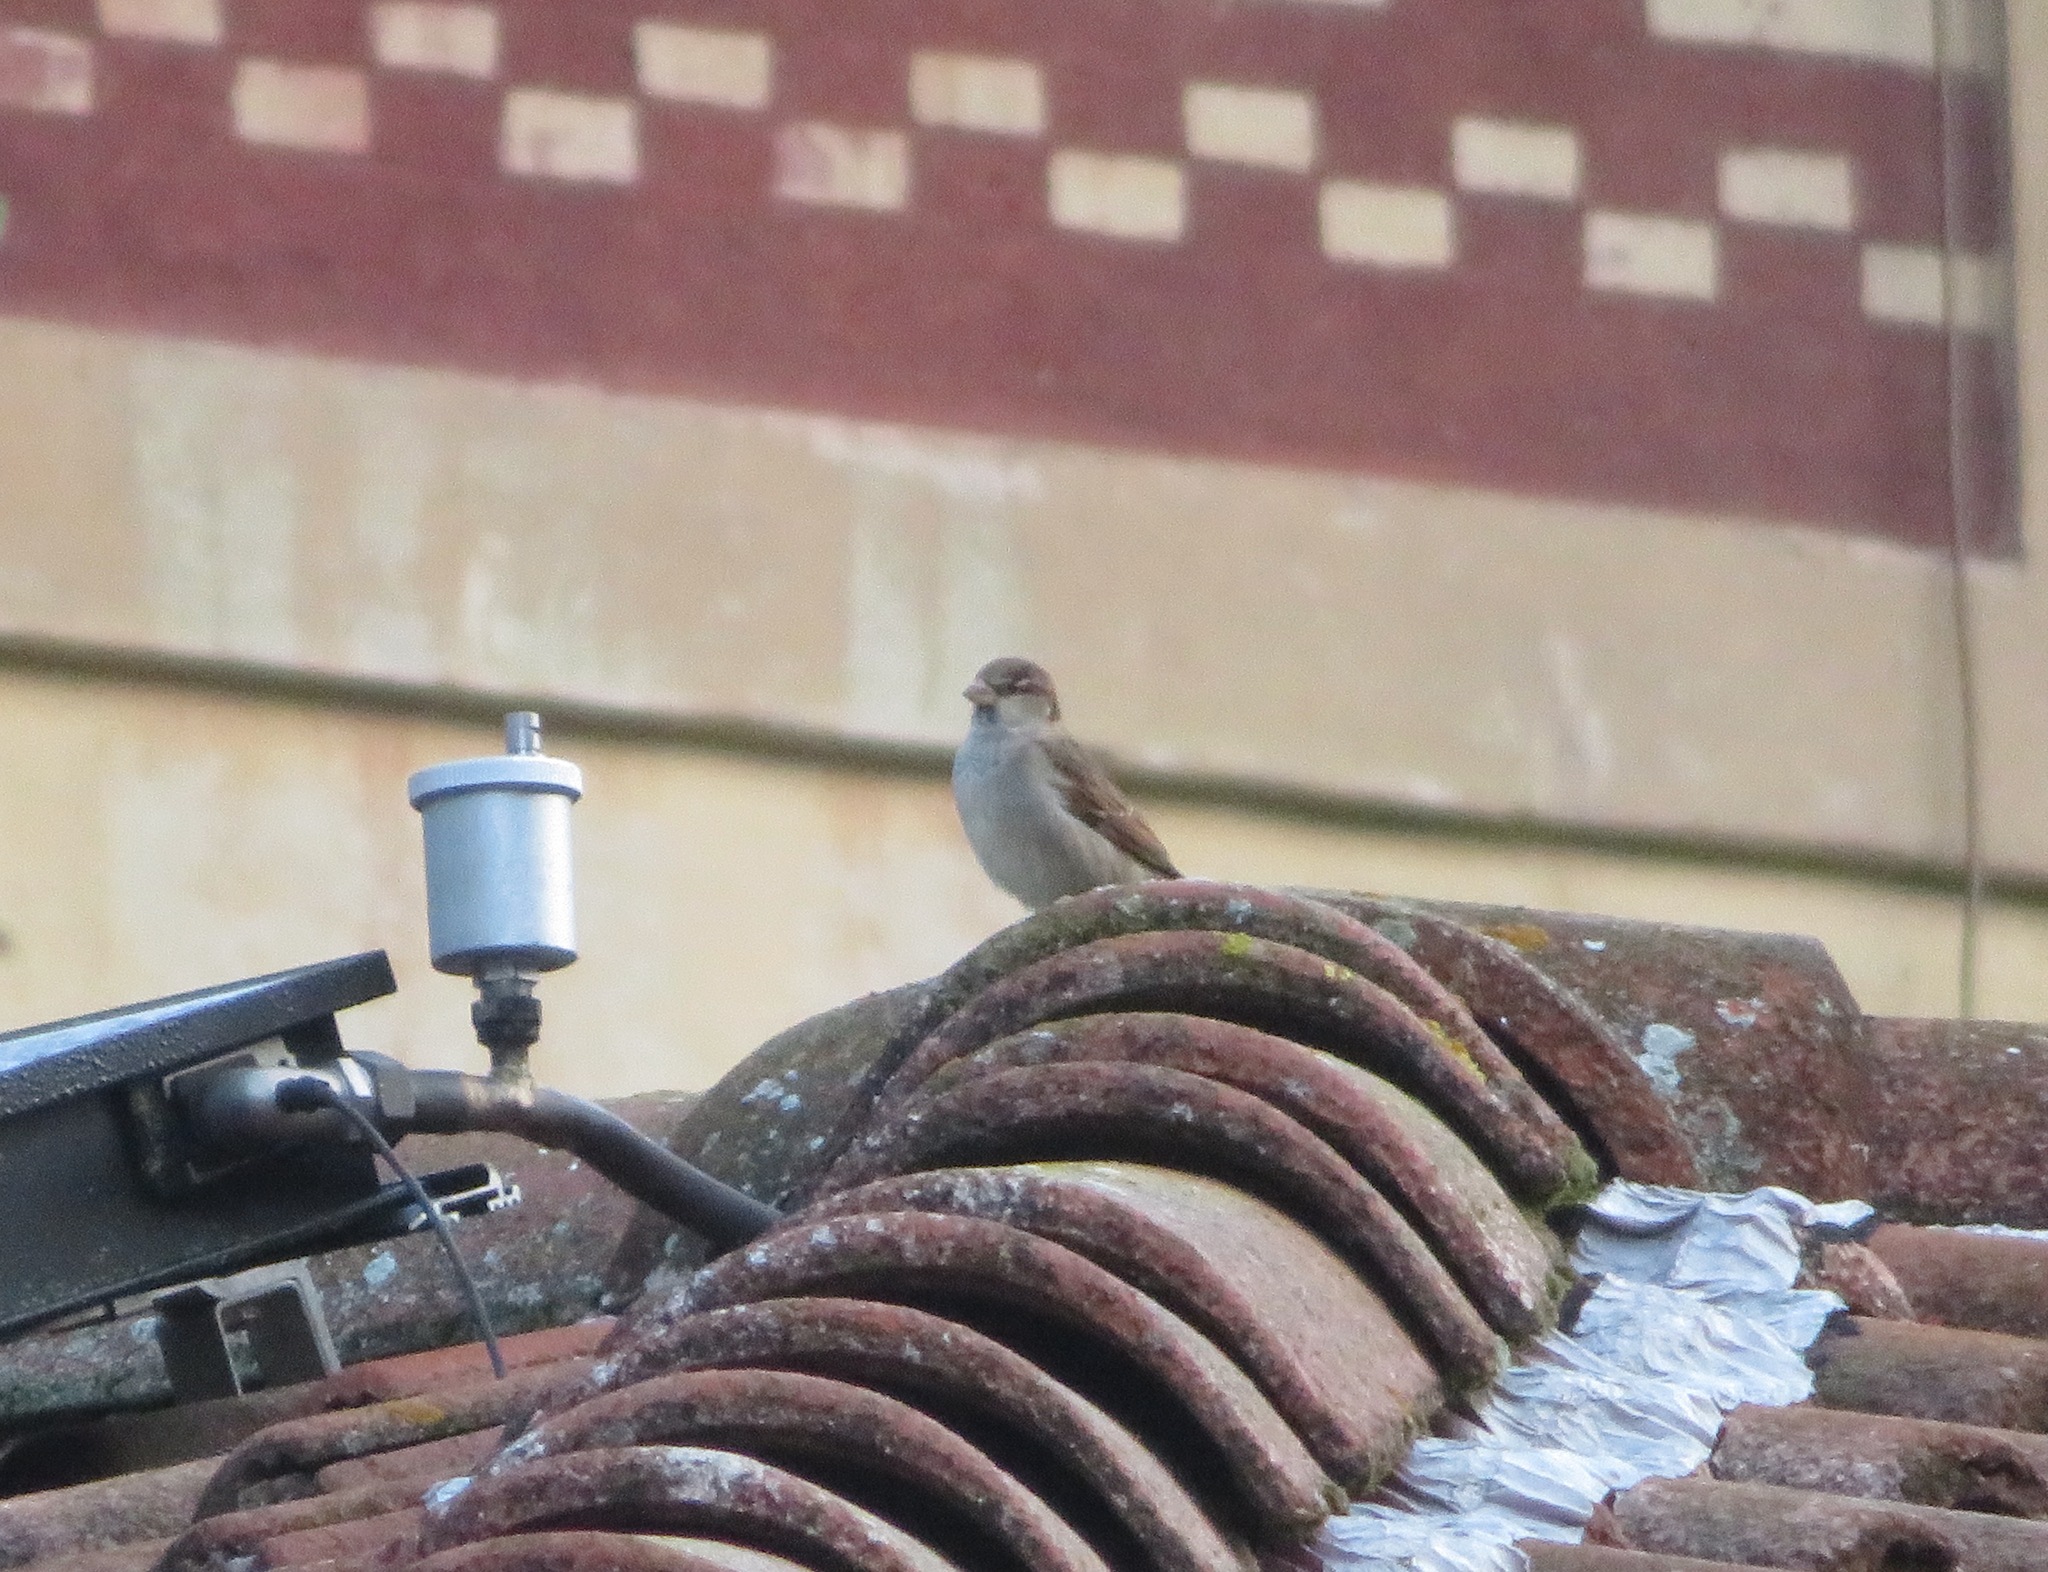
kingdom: Animalia
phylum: Chordata
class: Aves
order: Passeriformes
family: Passeridae
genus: Passer
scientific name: Passer italiae
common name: Italian sparrow
